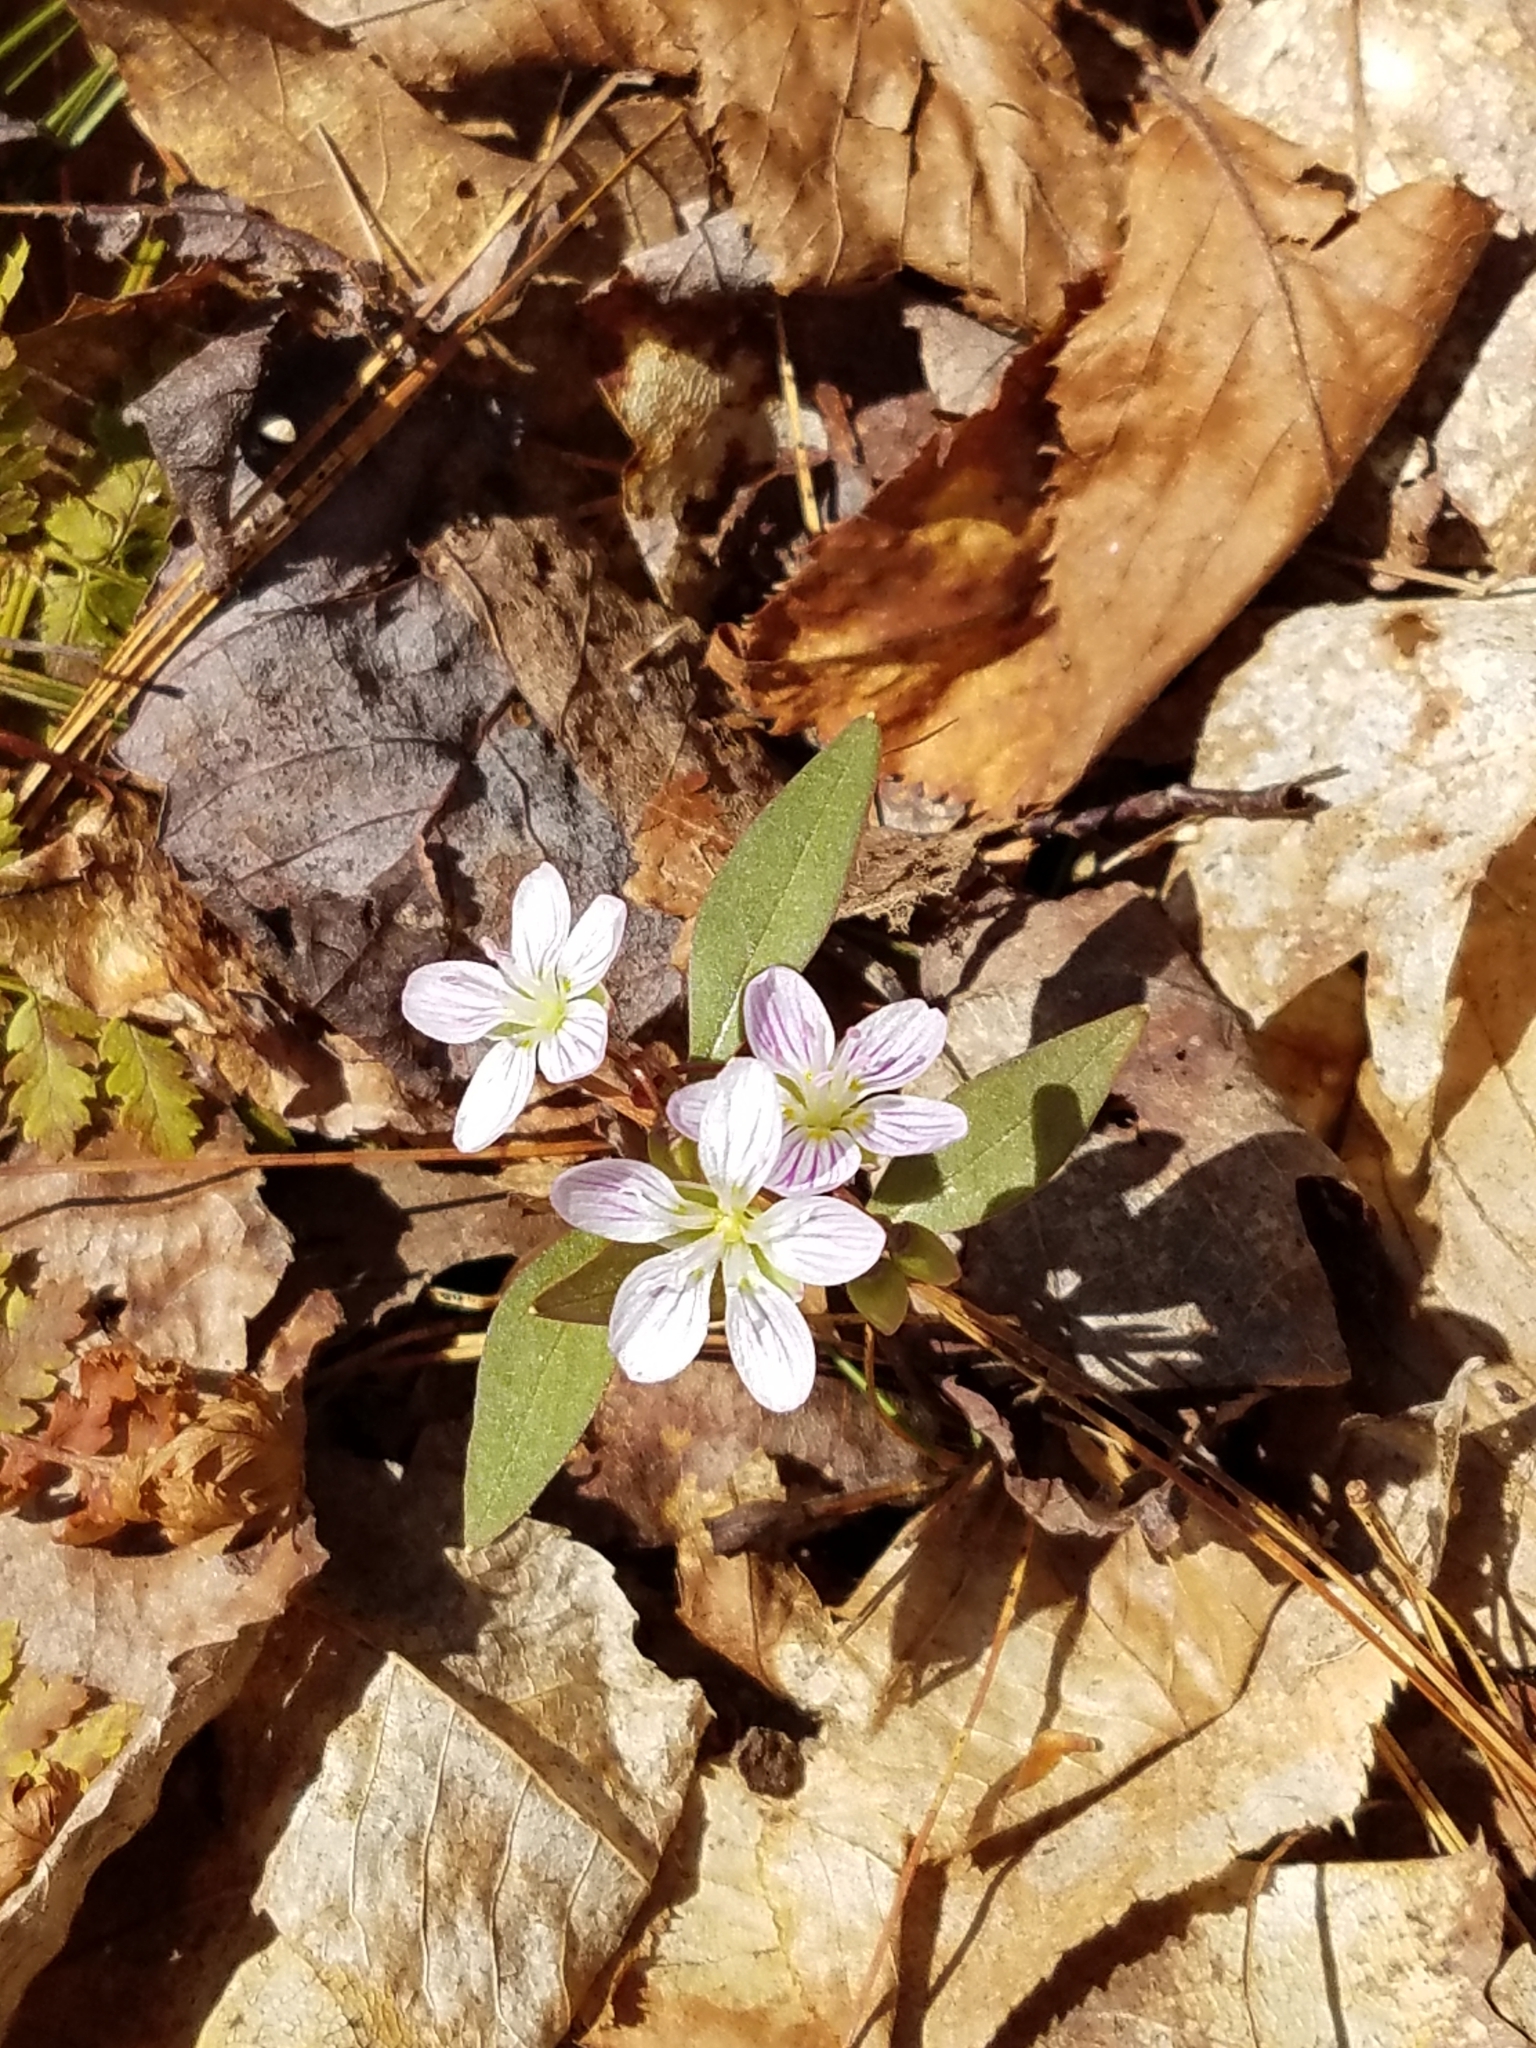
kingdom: Plantae
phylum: Tracheophyta
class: Magnoliopsida
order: Caryophyllales
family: Montiaceae
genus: Claytonia
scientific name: Claytonia caroliniana
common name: Carolina spring beauty
